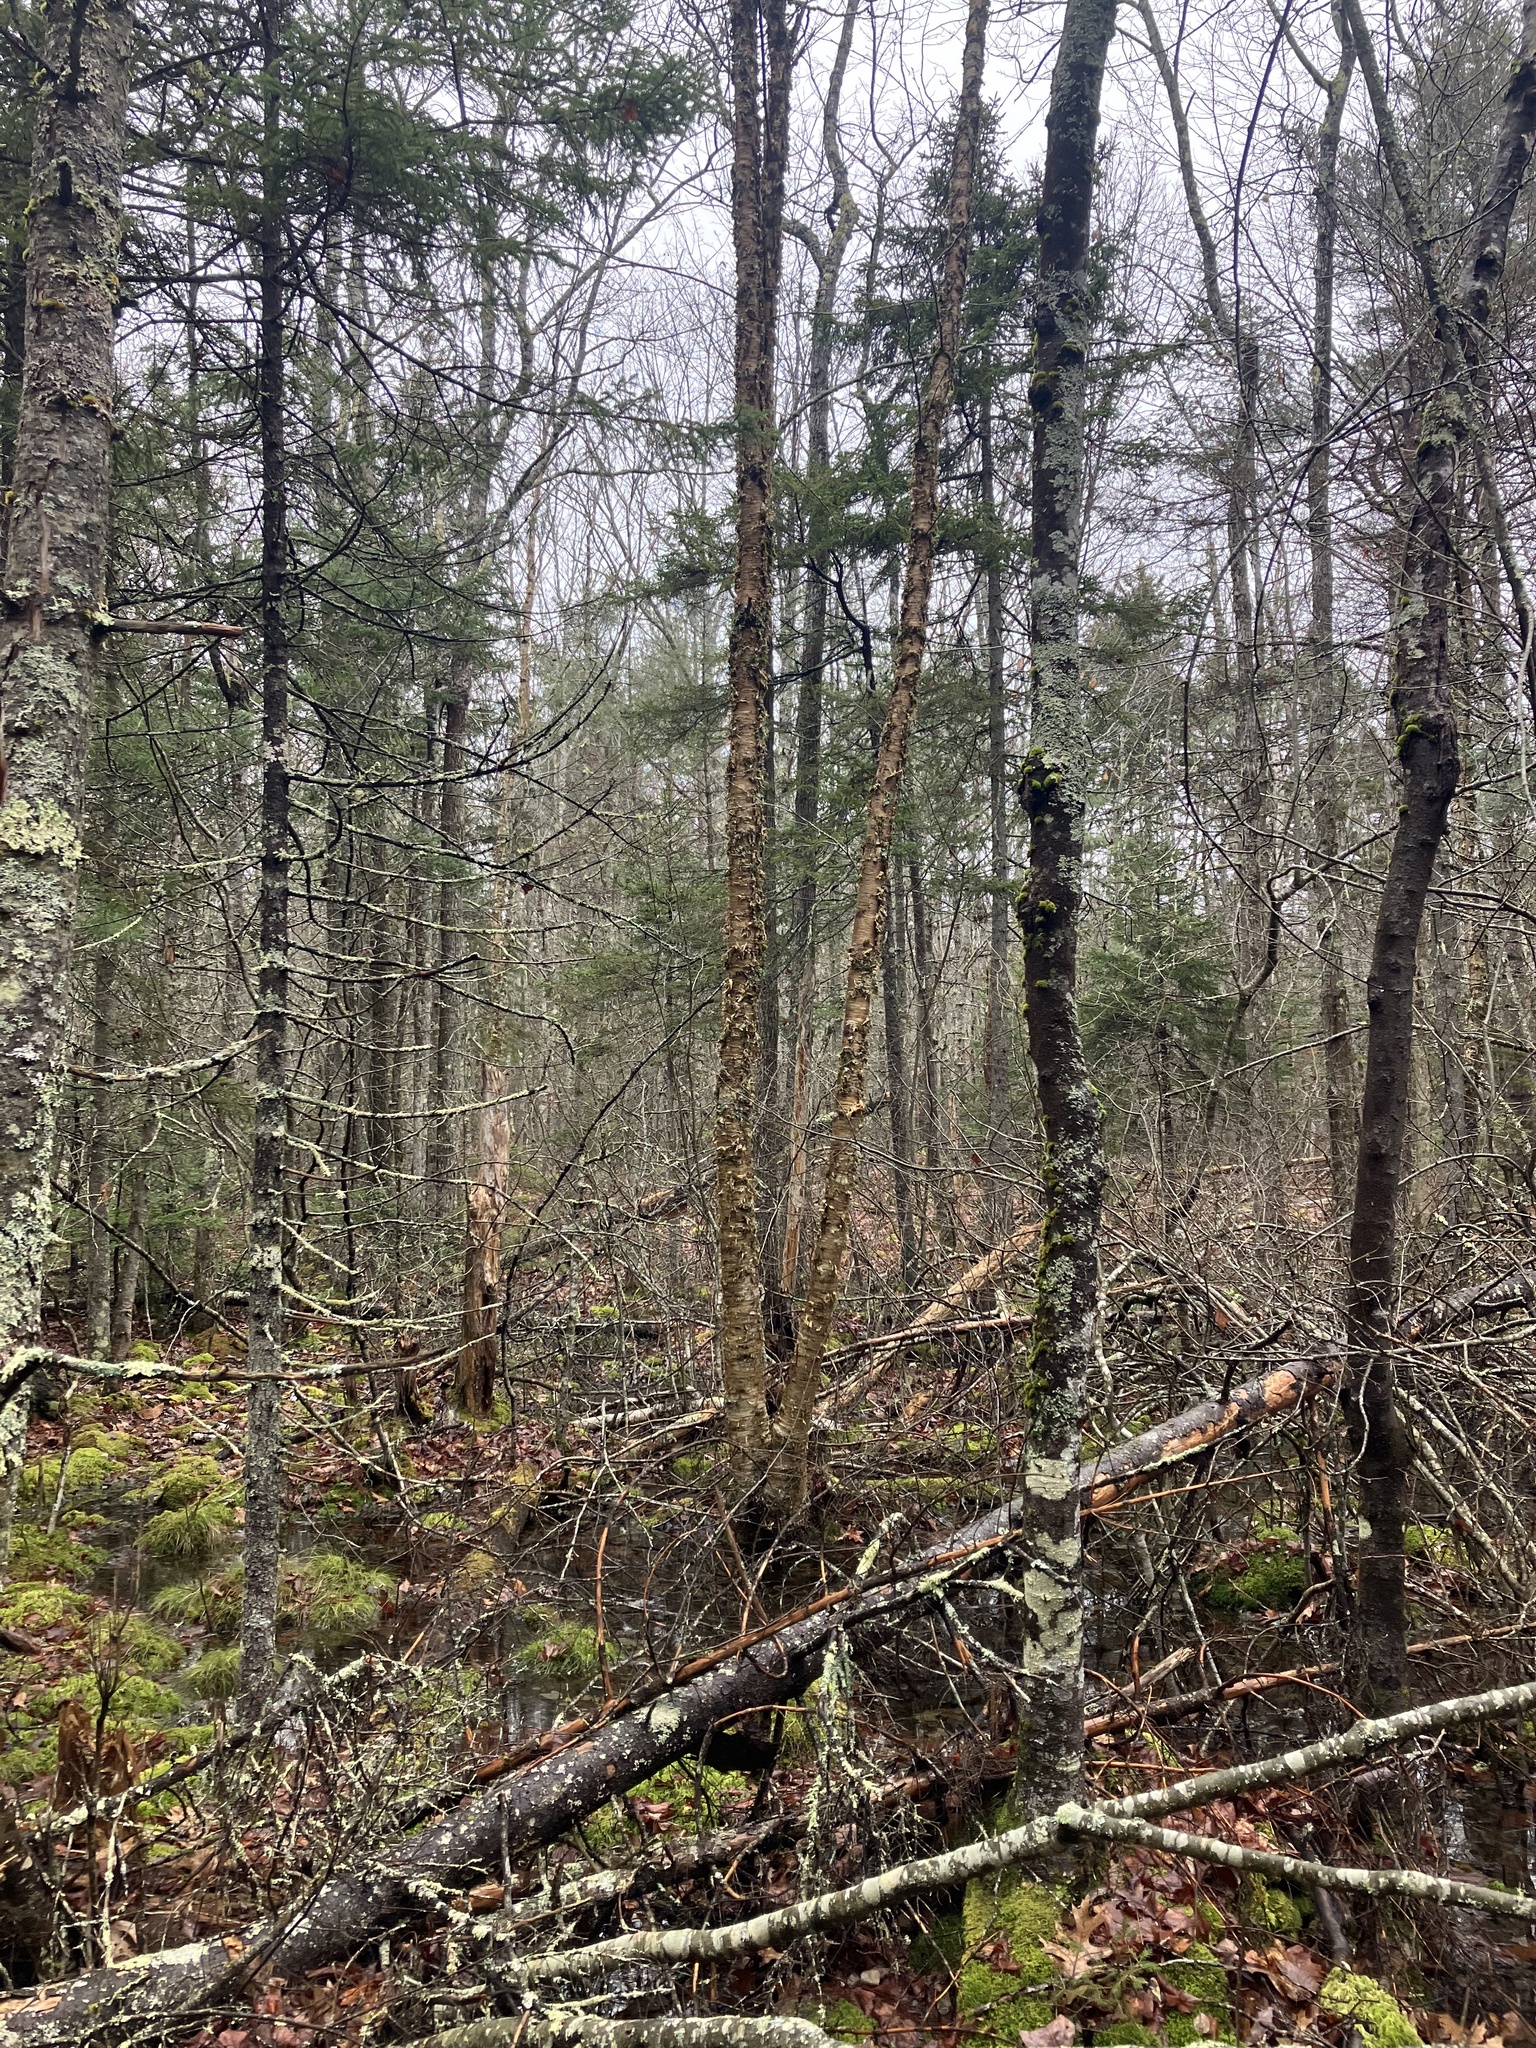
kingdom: Plantae
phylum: Tracheophyta
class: Magnoliopsida
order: Fagales
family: Betulaceae
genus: Betula
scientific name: Betula alleghaniensis
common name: Yellow birch
